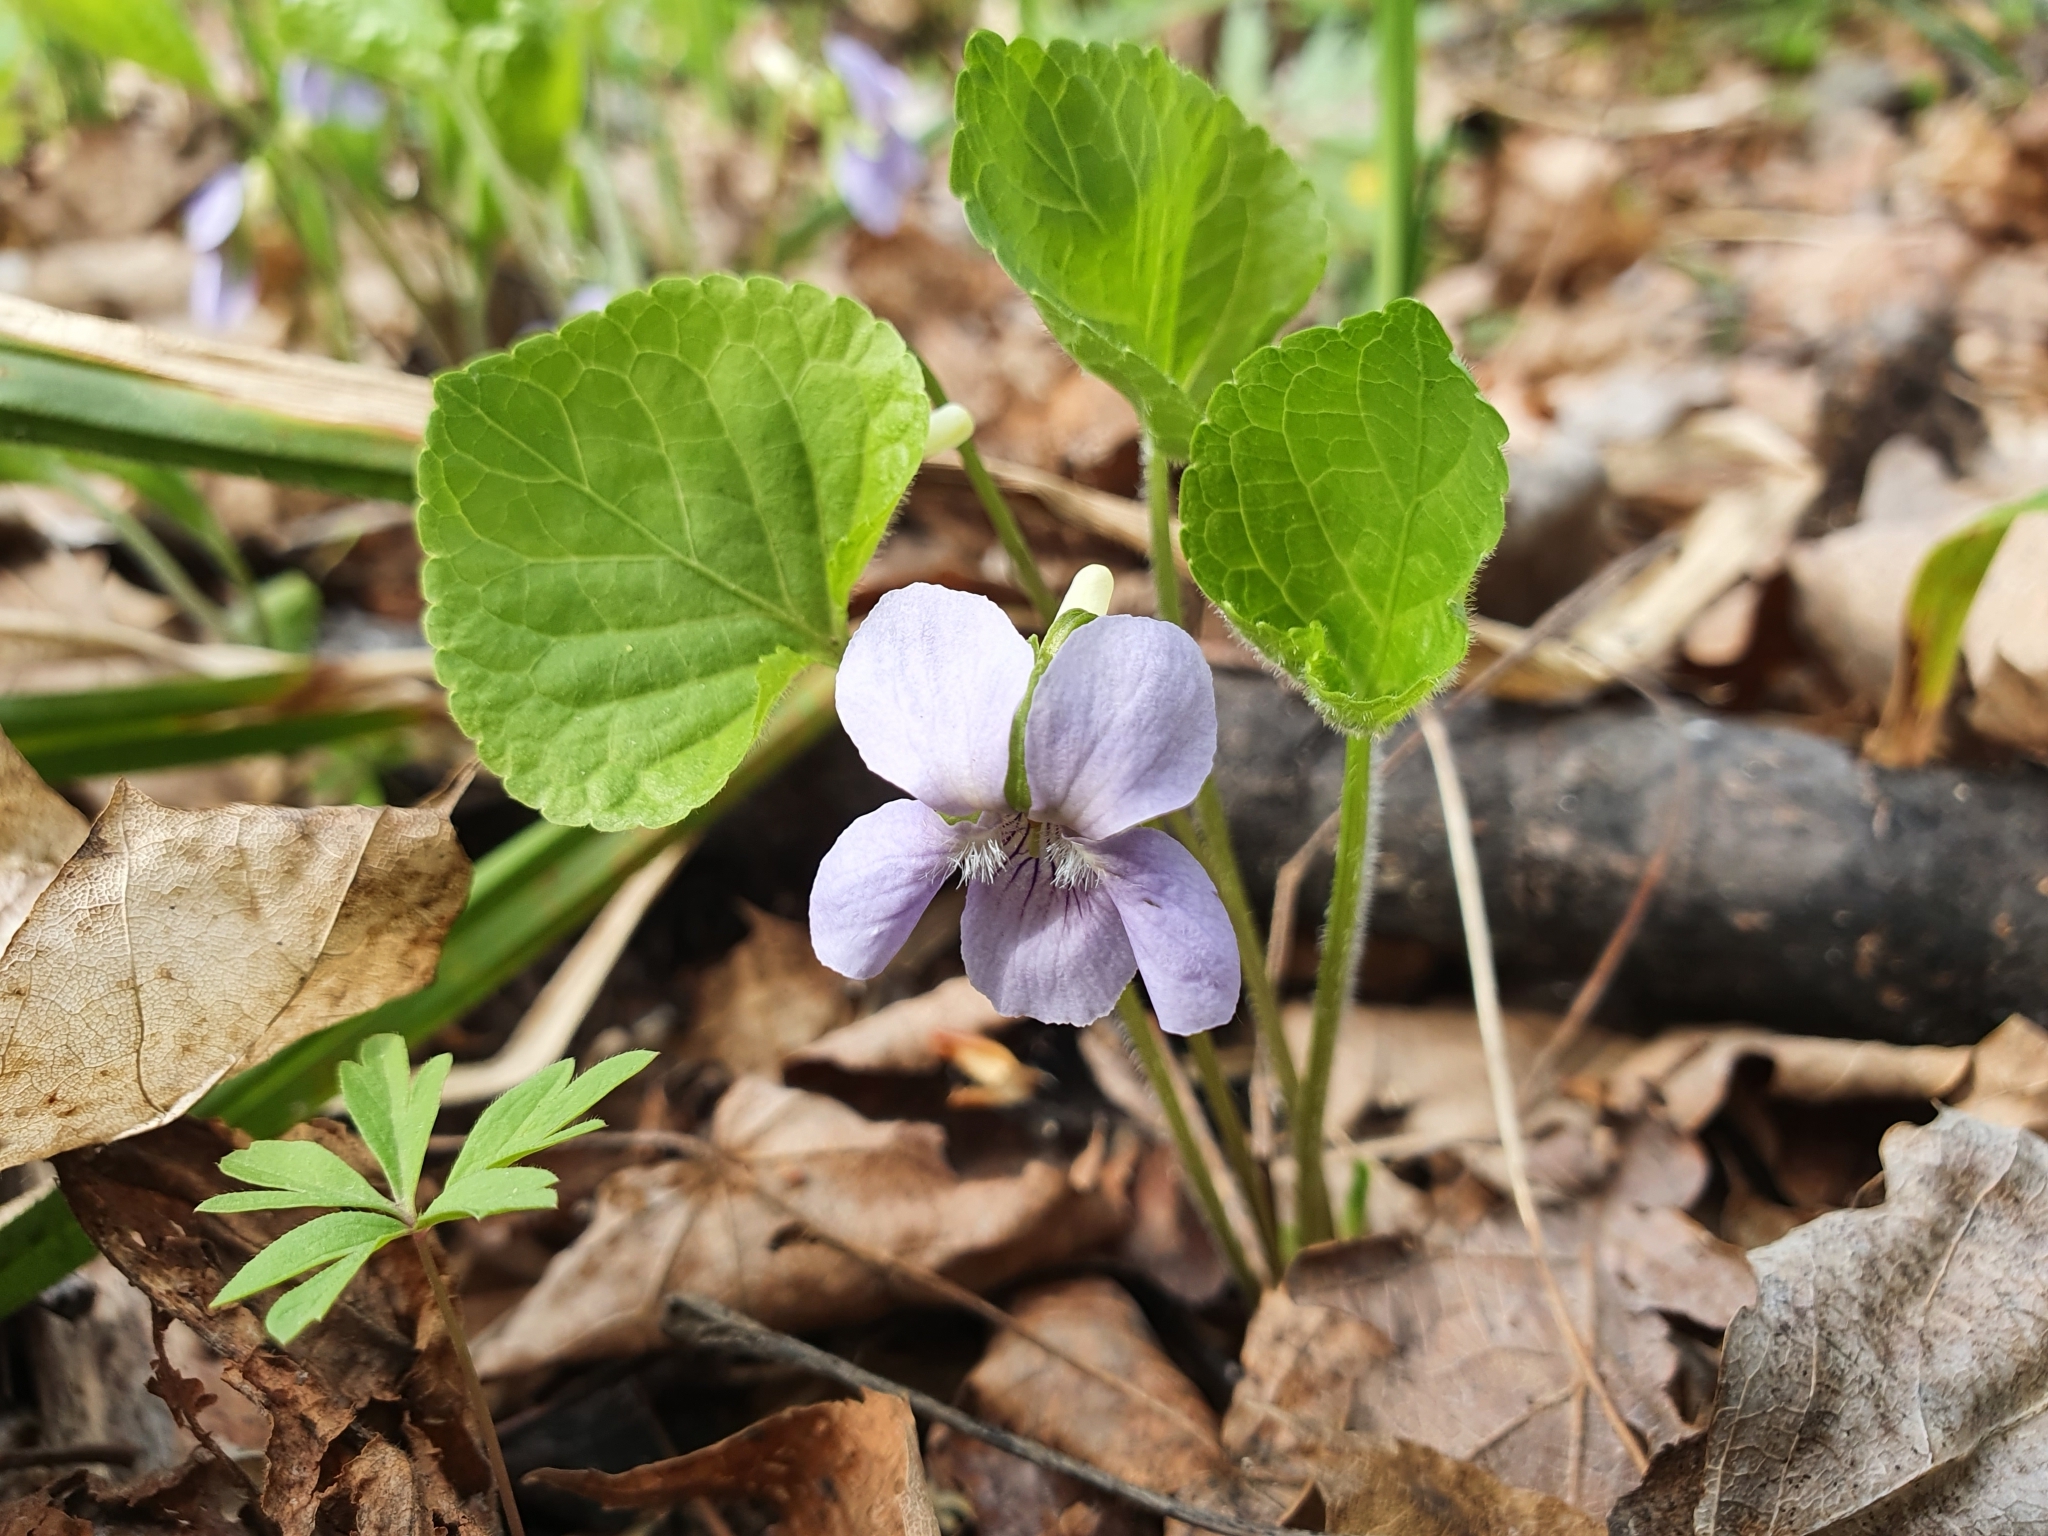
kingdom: Plantae
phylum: Tracheophyta
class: Magnoliopsida
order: Malpighiales
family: Violaceae
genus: Viola
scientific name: Viola mirabilis
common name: Wonder violet
